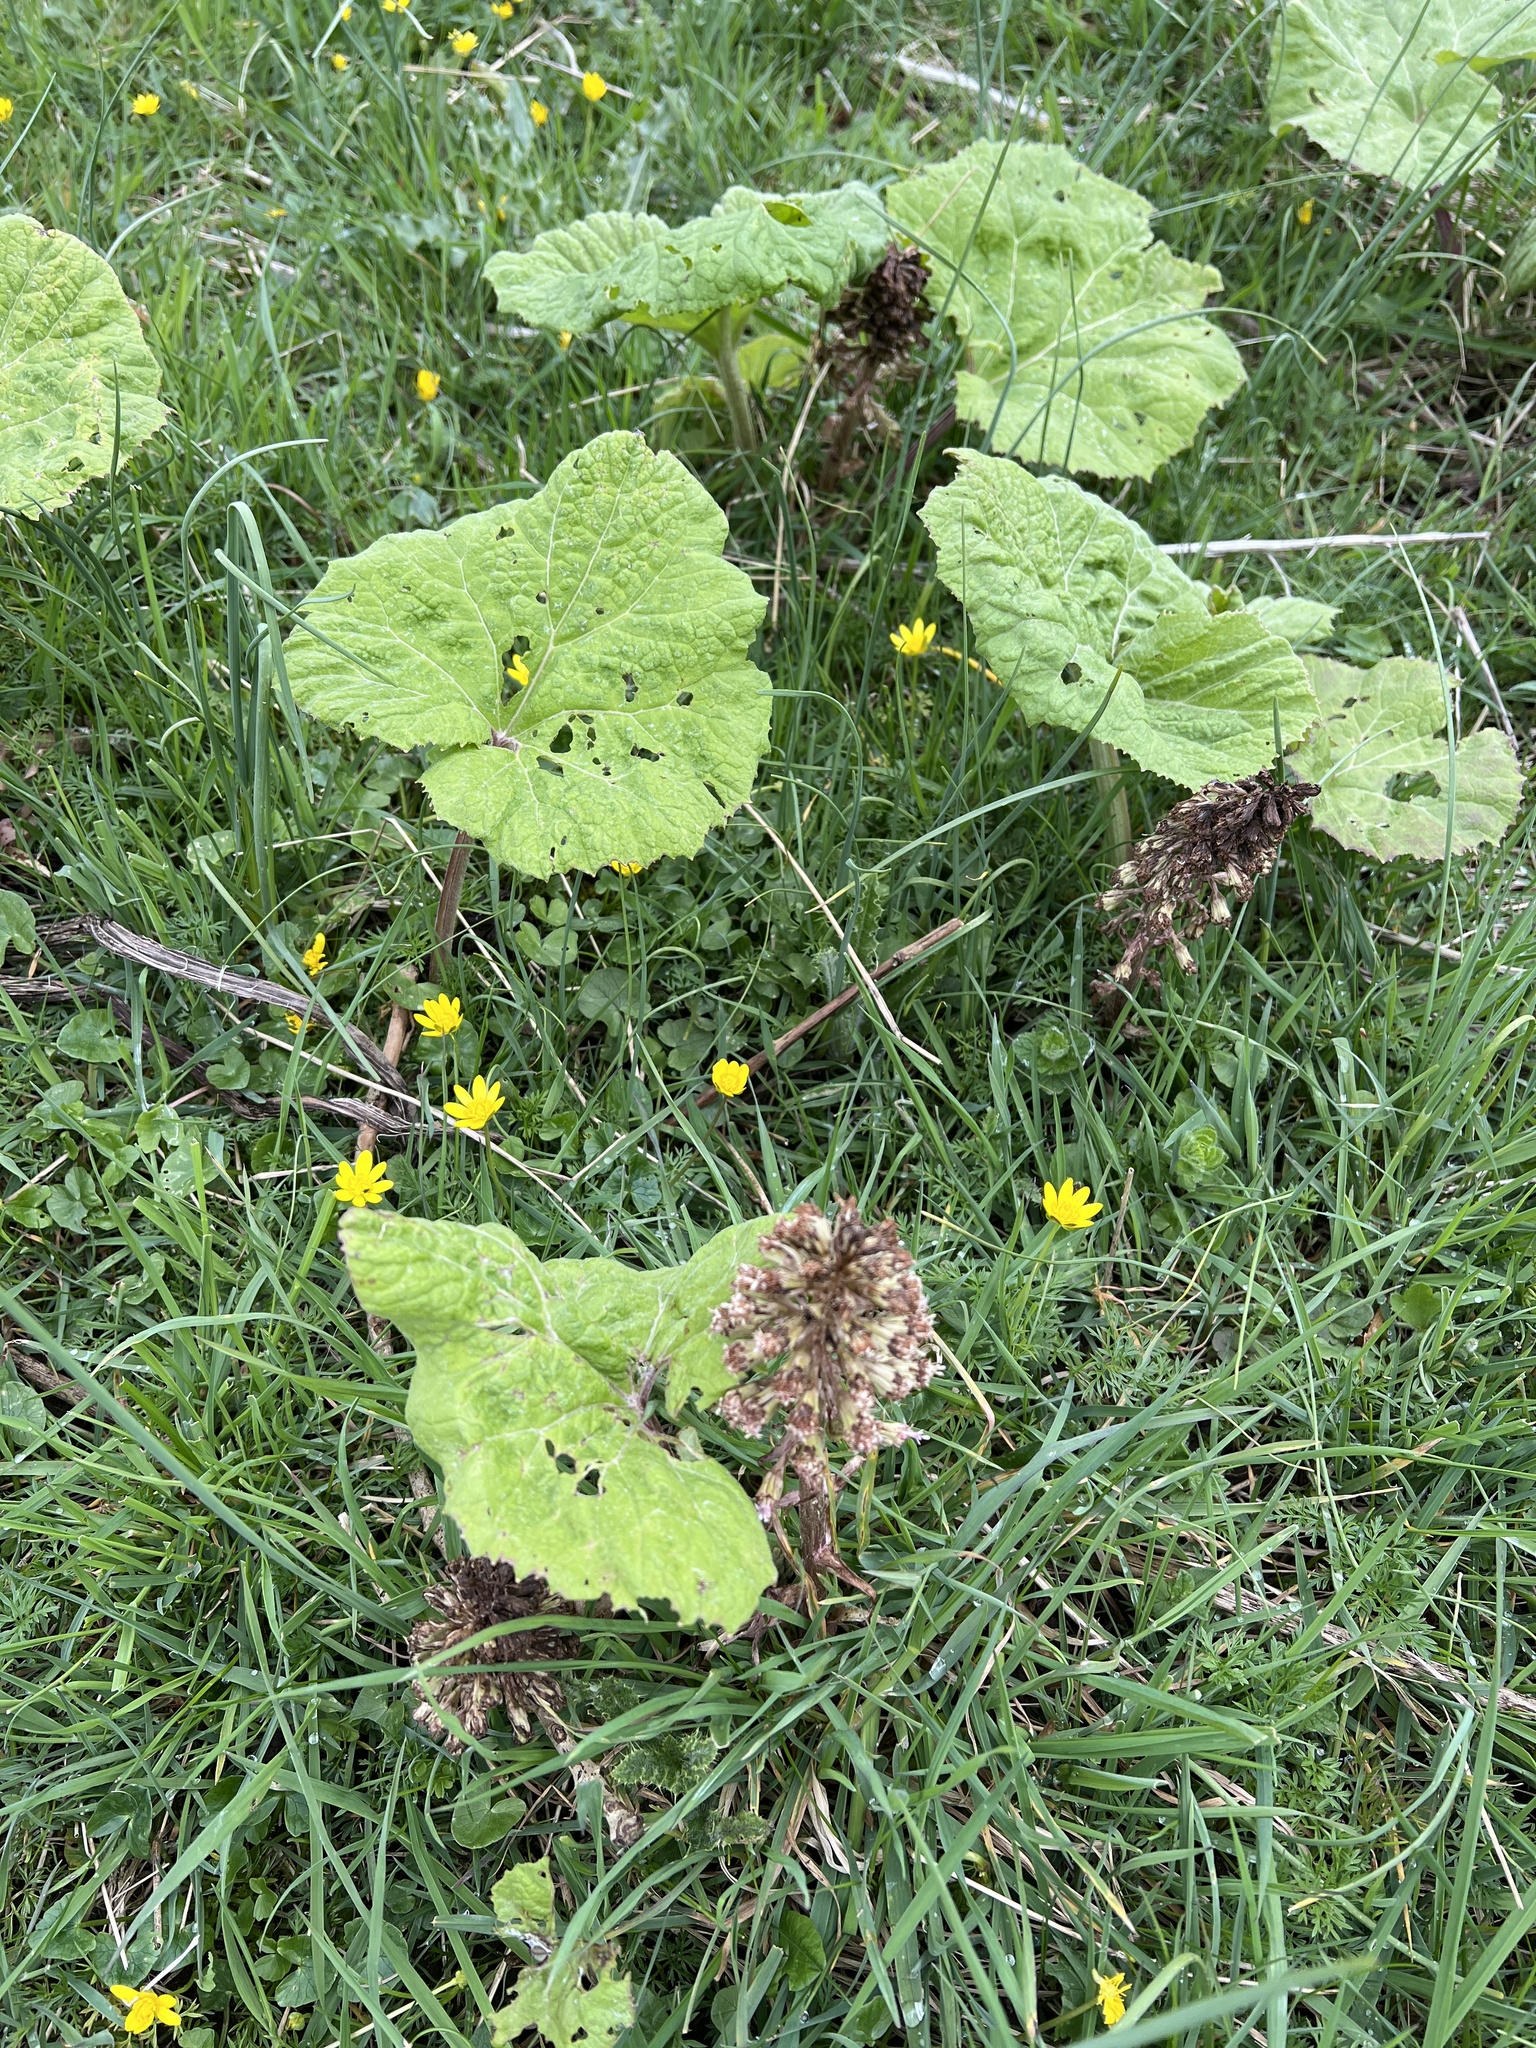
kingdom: Plantae
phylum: Tracheophyta
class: Magnoliopsida
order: Asterales
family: Asteraceae
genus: Petasites
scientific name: Petasites hybridus
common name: Butterbur
